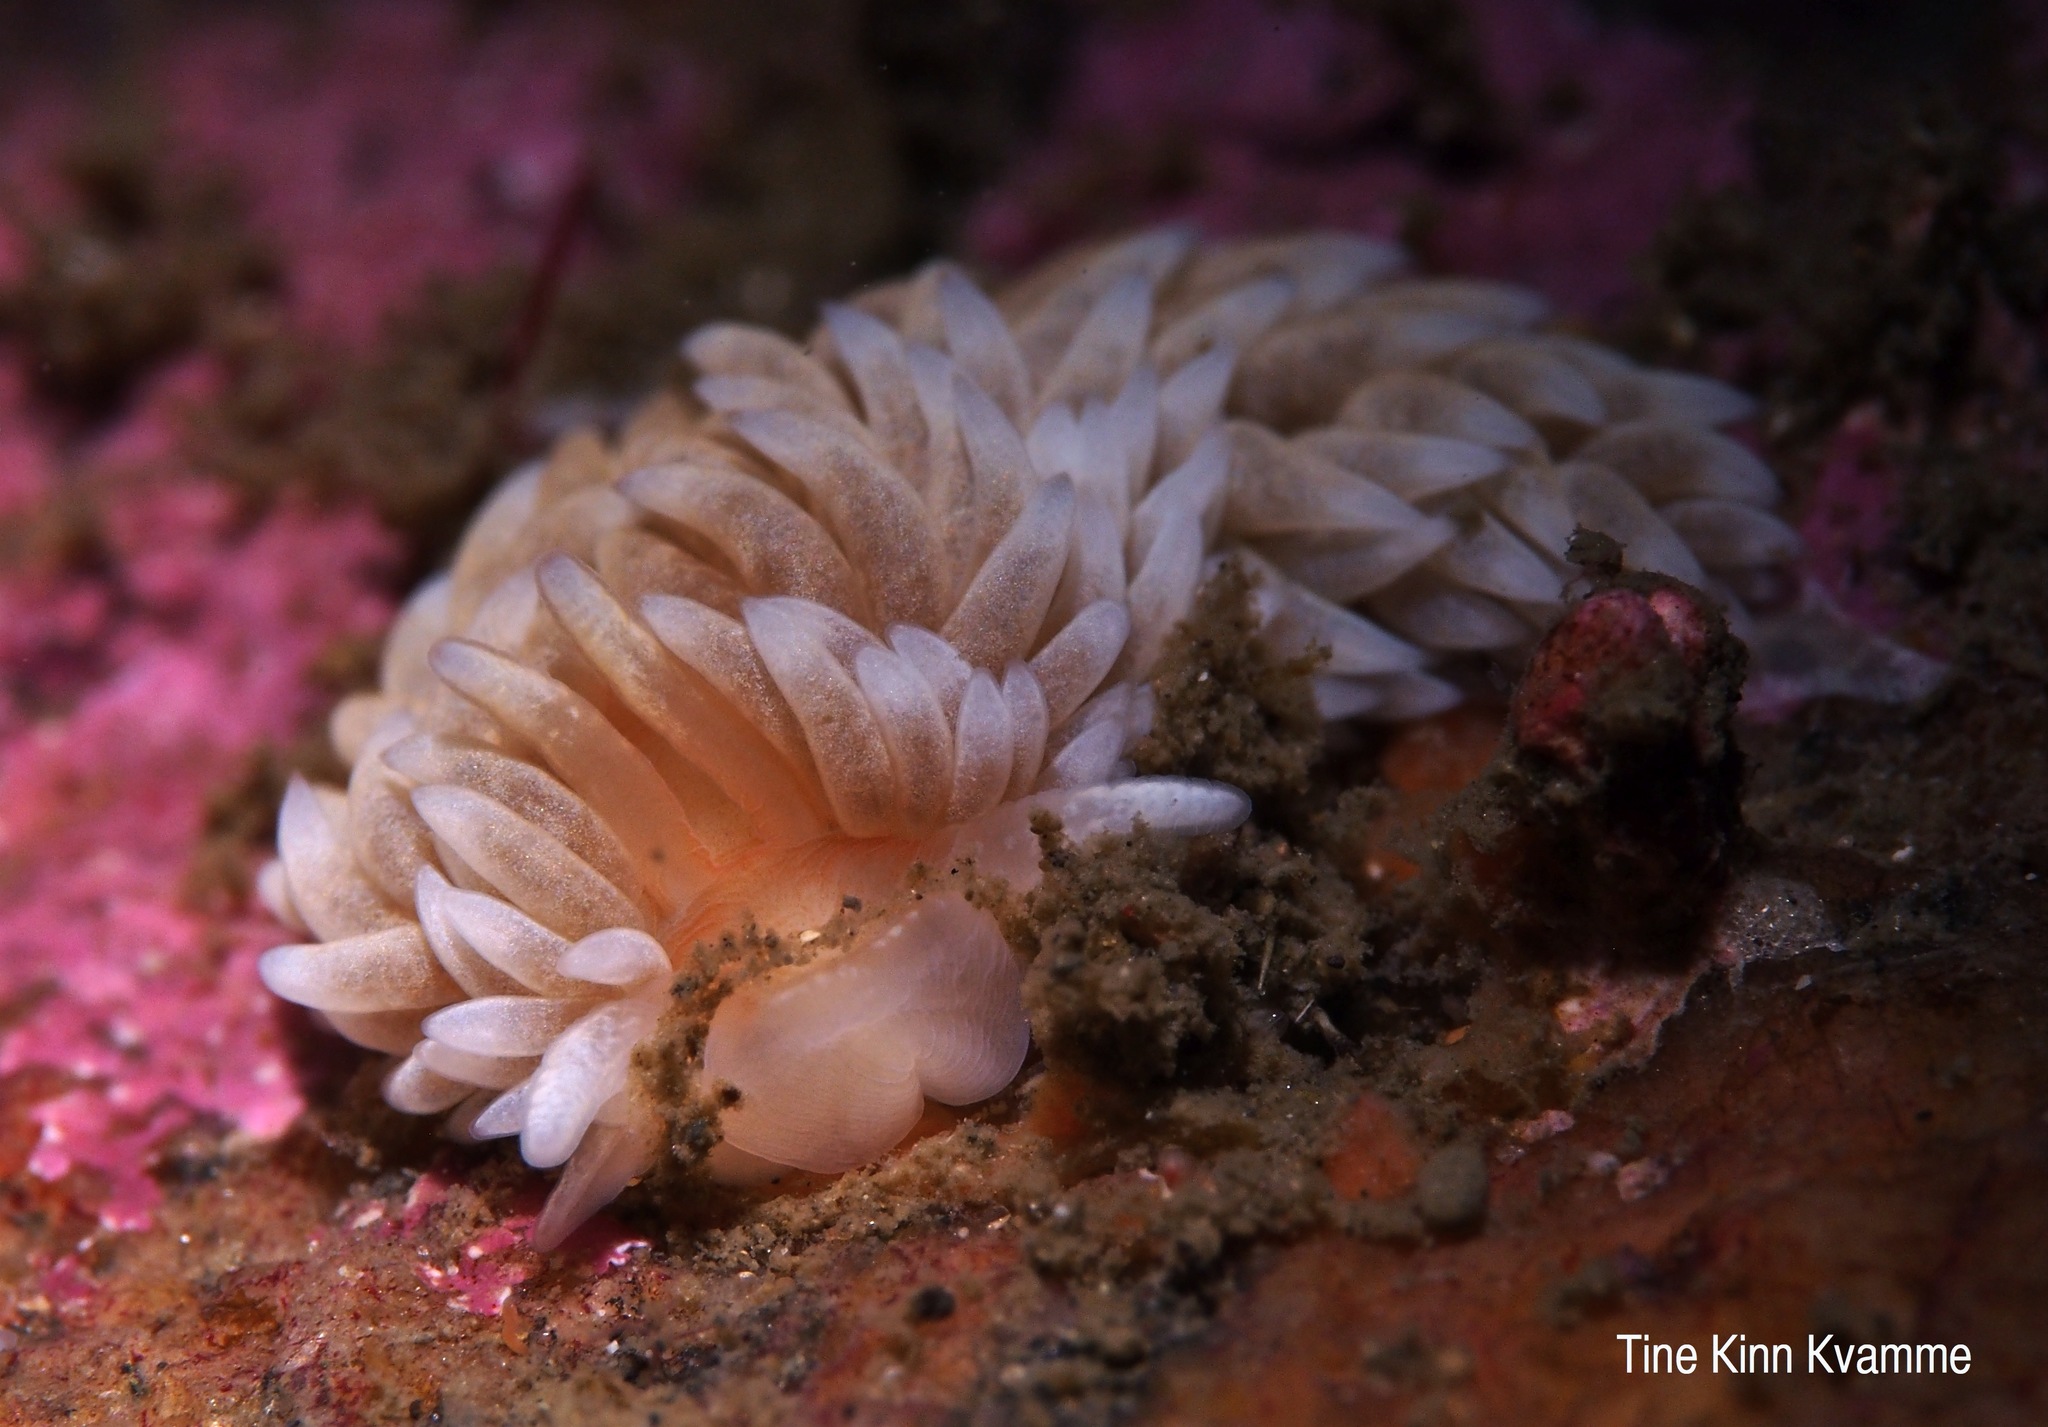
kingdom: Animalia
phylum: Mollusca
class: Gastropoda
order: Nudibranchia
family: Aeolidiidae
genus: Aeolidiella
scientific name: Aeolidiella glauca
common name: Orange-brown aeolid
